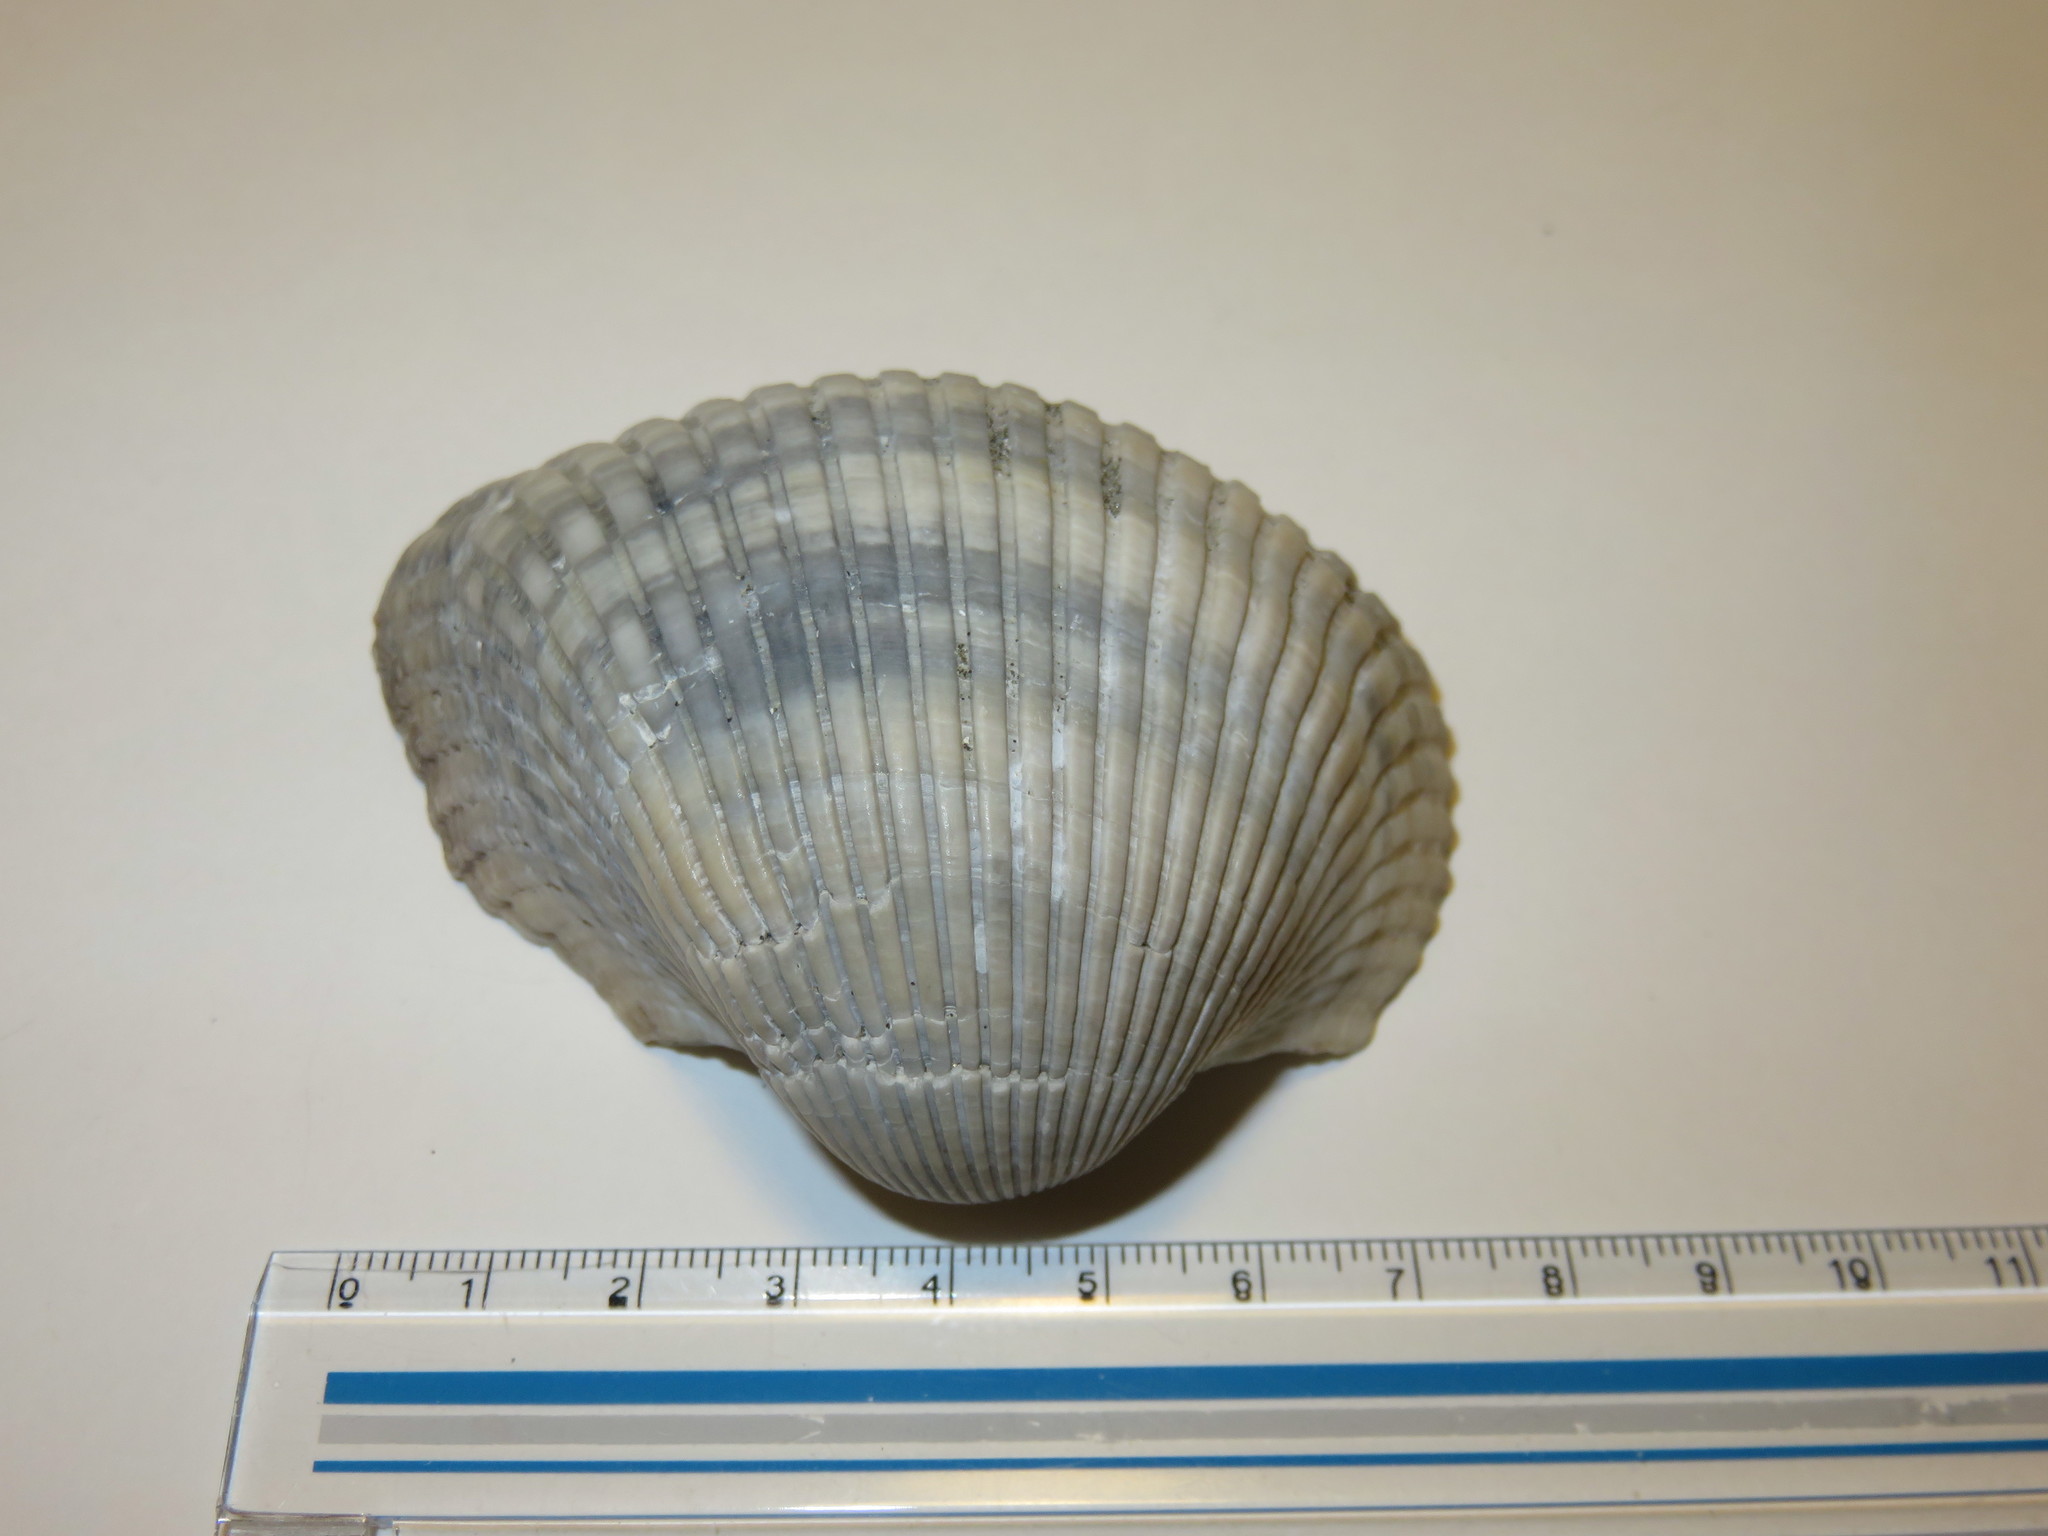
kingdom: Animalia
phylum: Mollusca
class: Bivalvia
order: Arcida
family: Arcidae
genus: Anadara
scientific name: Anadara broughtonii
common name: Blood clam
